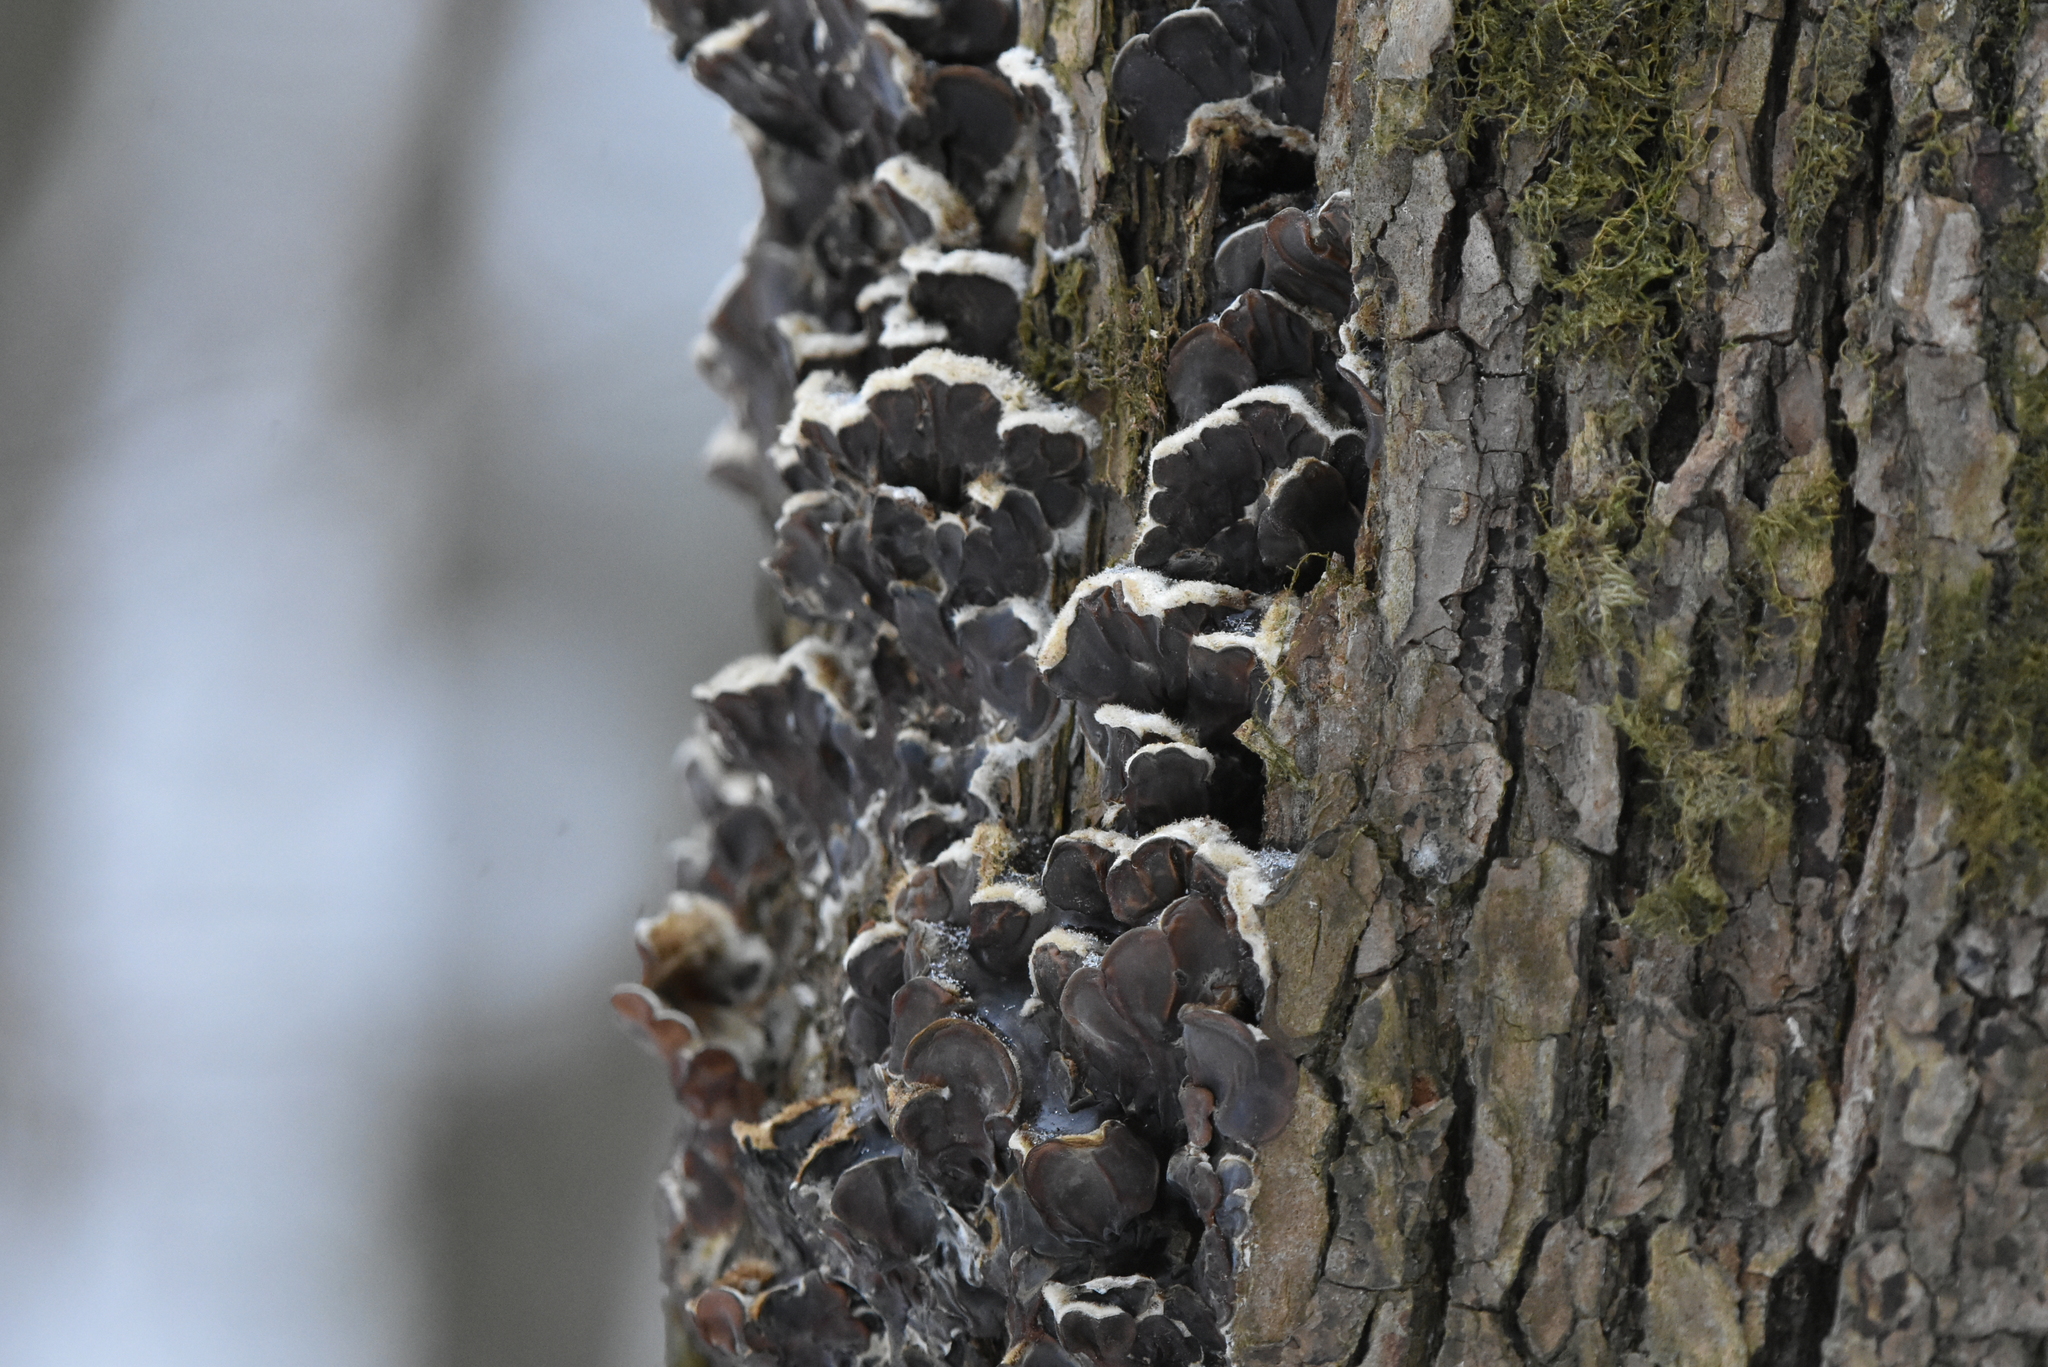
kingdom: Fungi
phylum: Basidiomycota
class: Agaricomycetes
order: Auriculariales
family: Auriculariaceae
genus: Auricularia
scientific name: Auricularia mesenterica
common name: Tripe fungus
